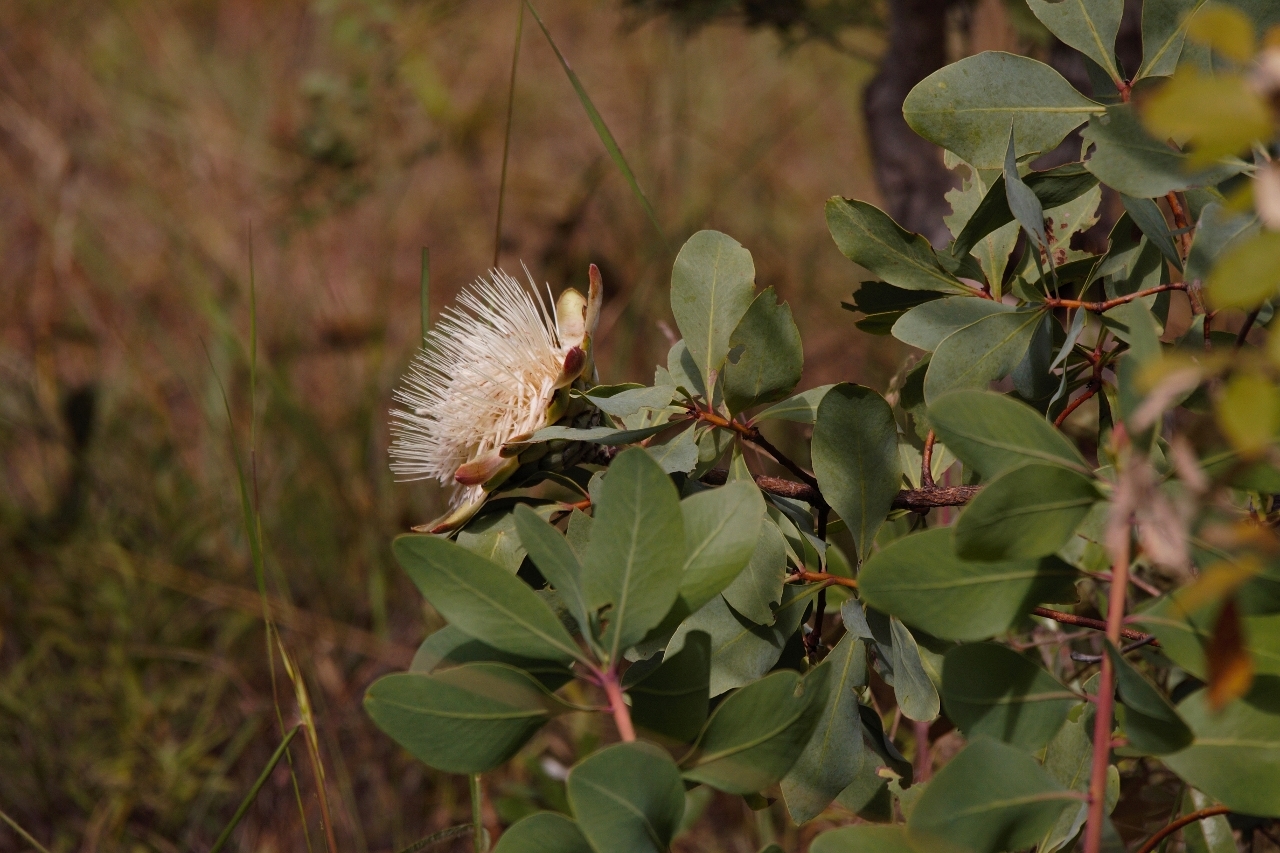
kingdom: Plantae
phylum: Tracheophyta
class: Magnoliopsida
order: Proteales
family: Proteaceae
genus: Protea
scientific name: Protea angolensis
